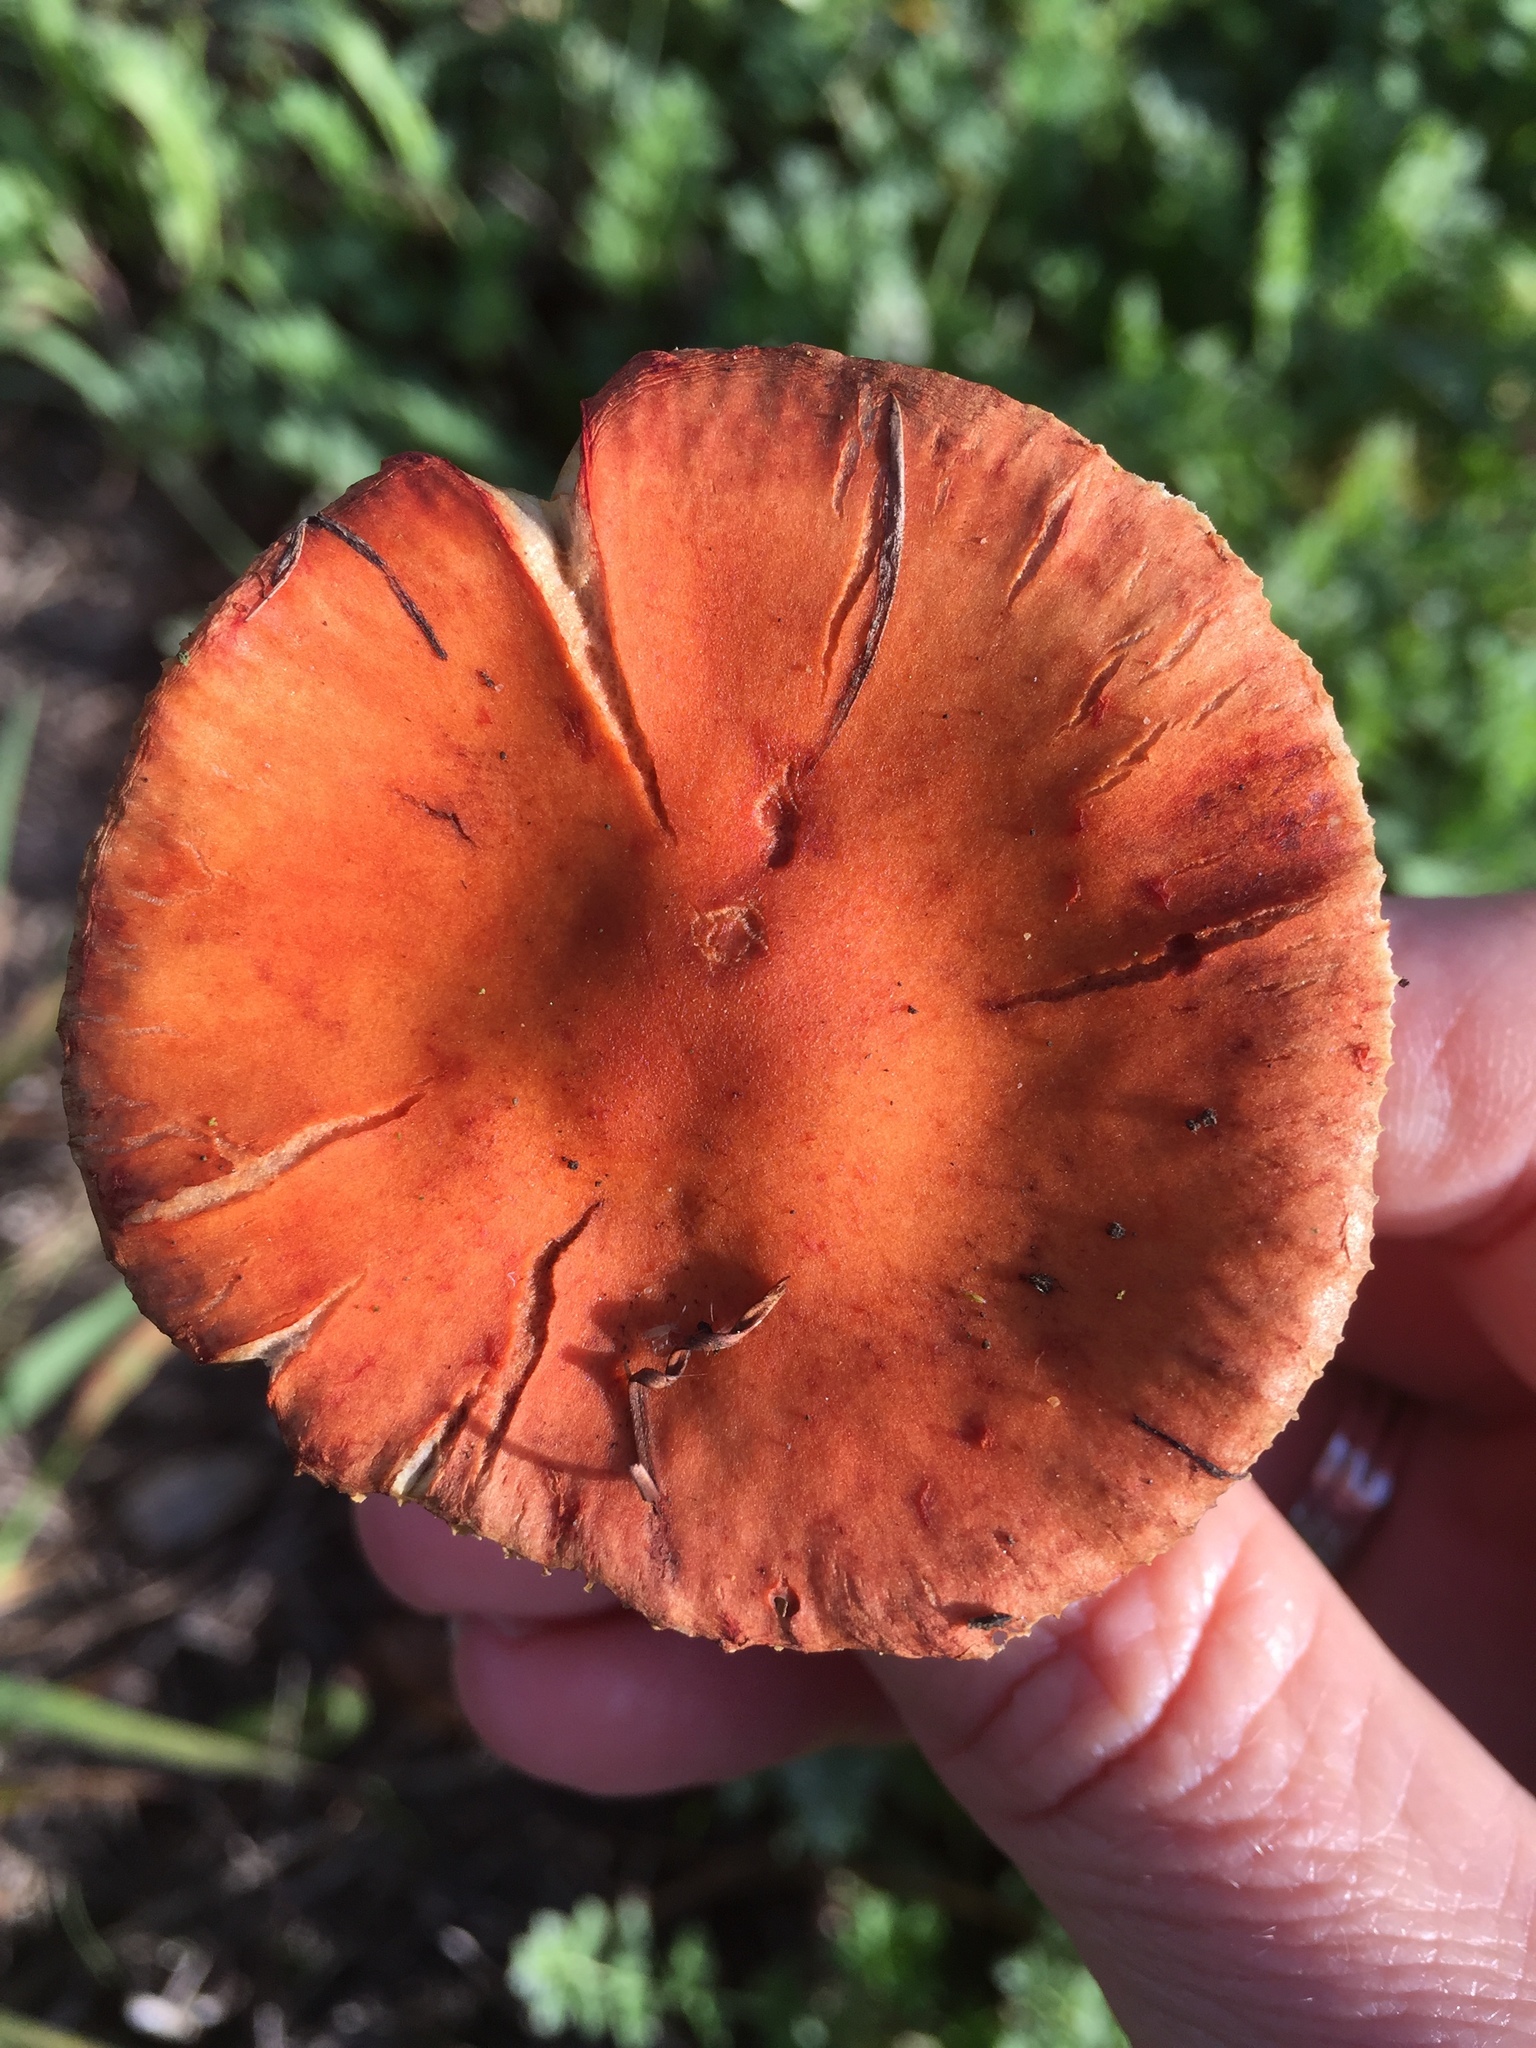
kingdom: Fungi
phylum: Basidiomycota
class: Agaricomycetes
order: Agaricales
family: Strophariaceae
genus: Leratiomyces
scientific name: Leratiomyces ceres
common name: Redlead roundhead
